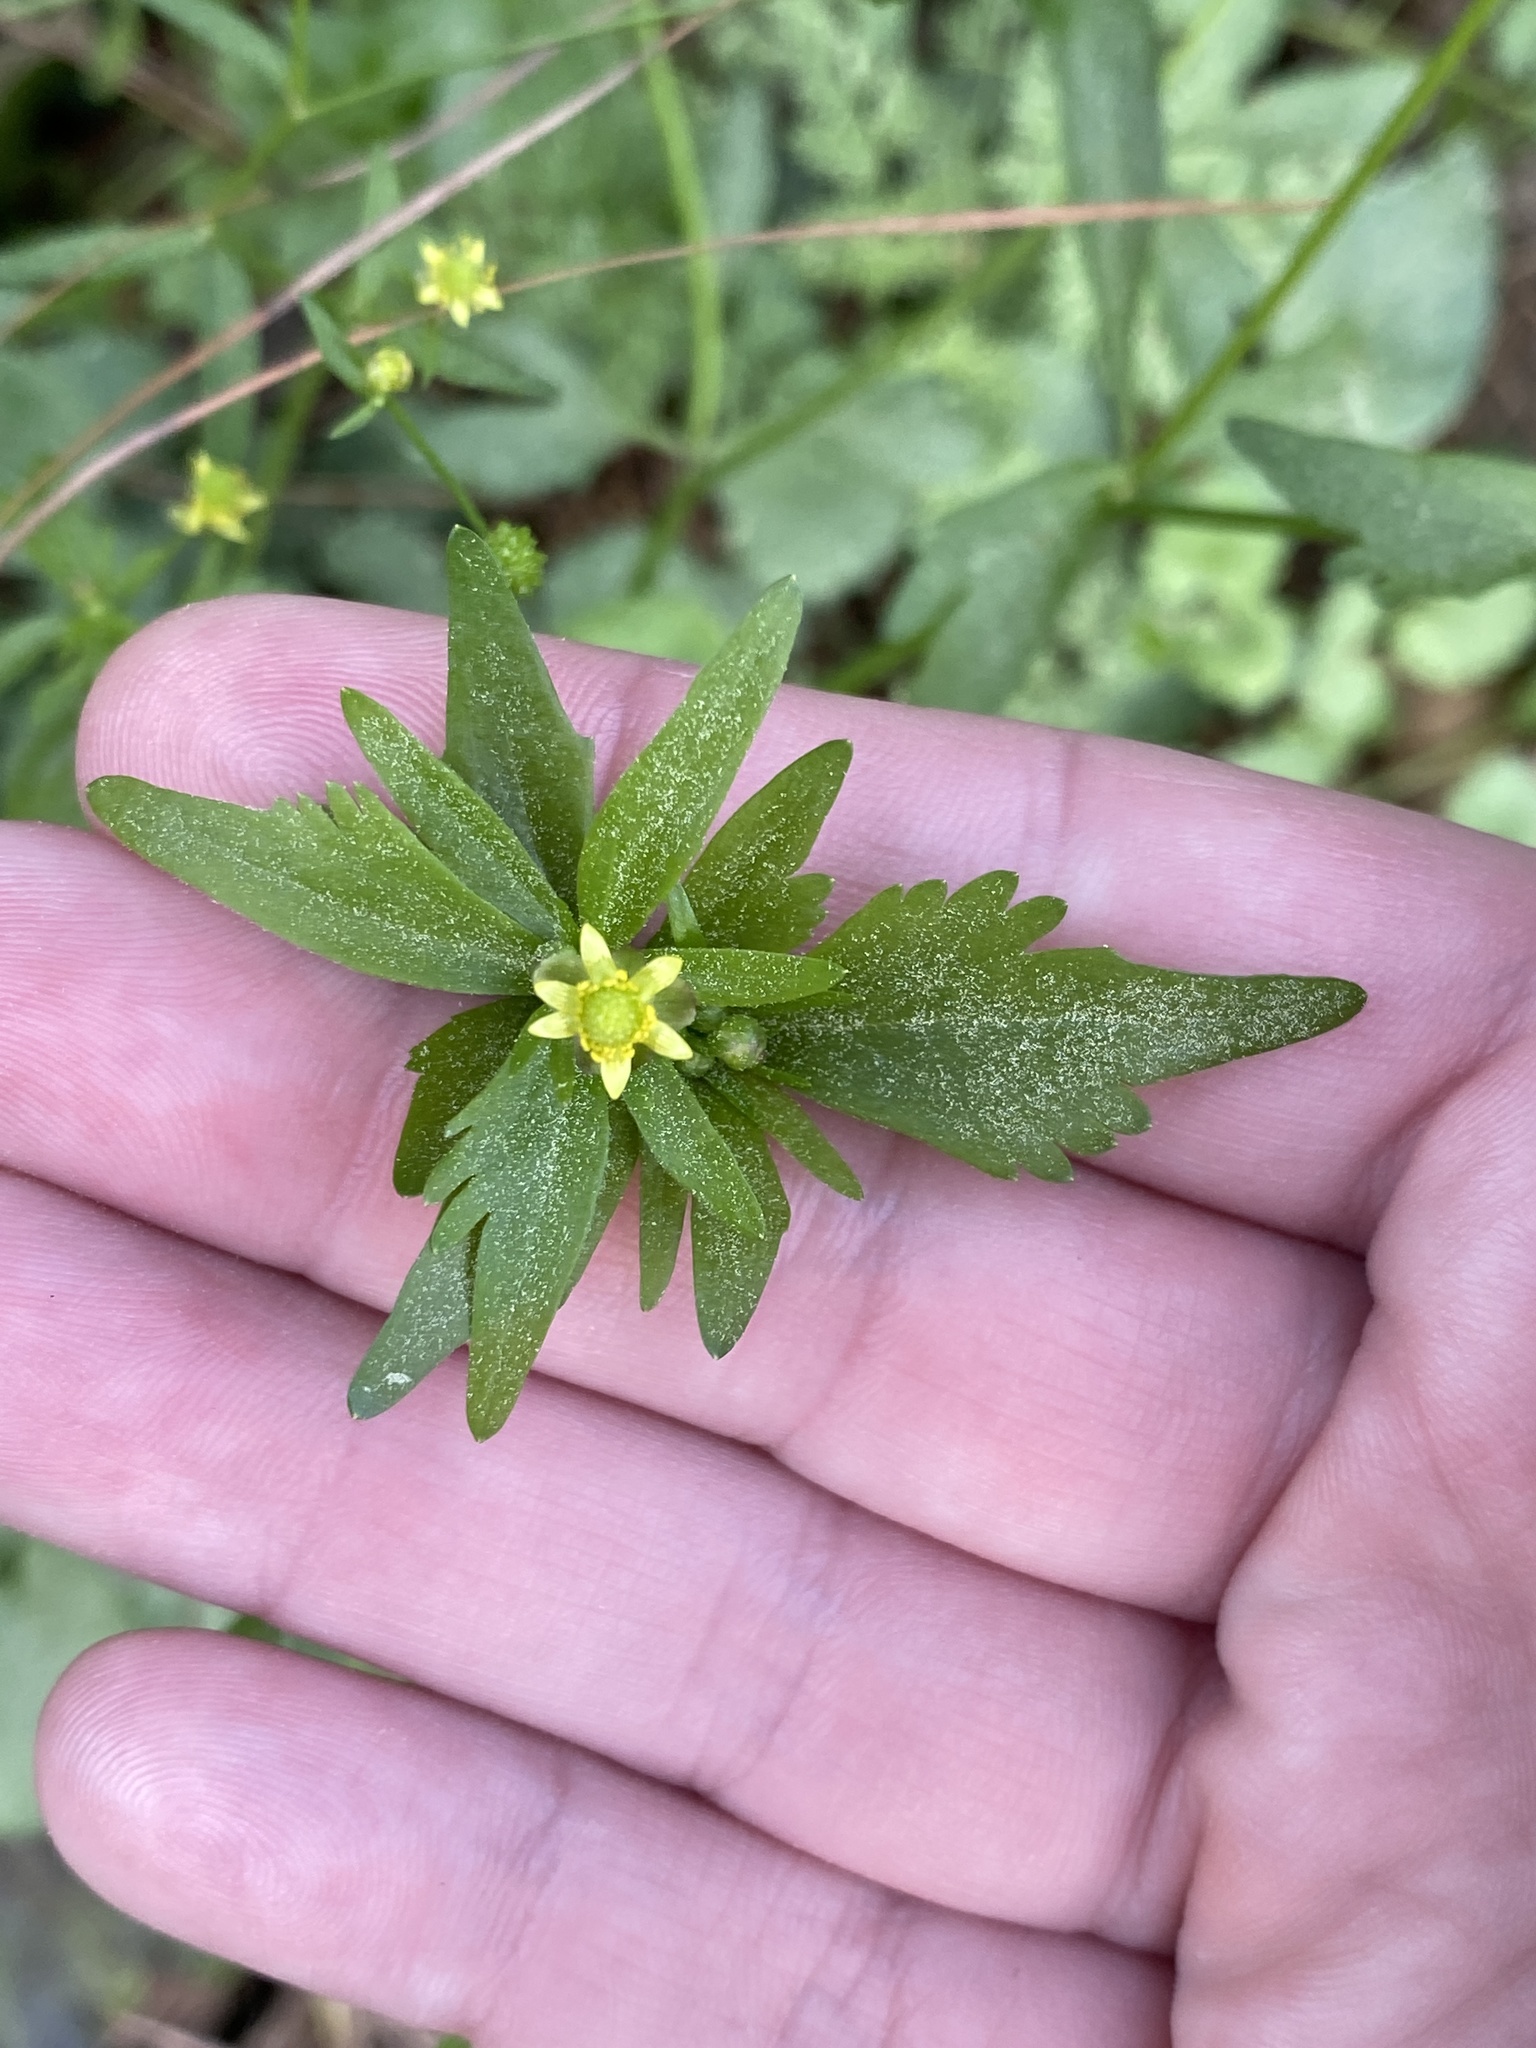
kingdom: Plantae
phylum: Tracheophyta
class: Magnoliopsida
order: Ranunculales
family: Ranunculaceae
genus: Ranunculus
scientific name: Ranunculus abortivus
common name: Early wood buttercup
